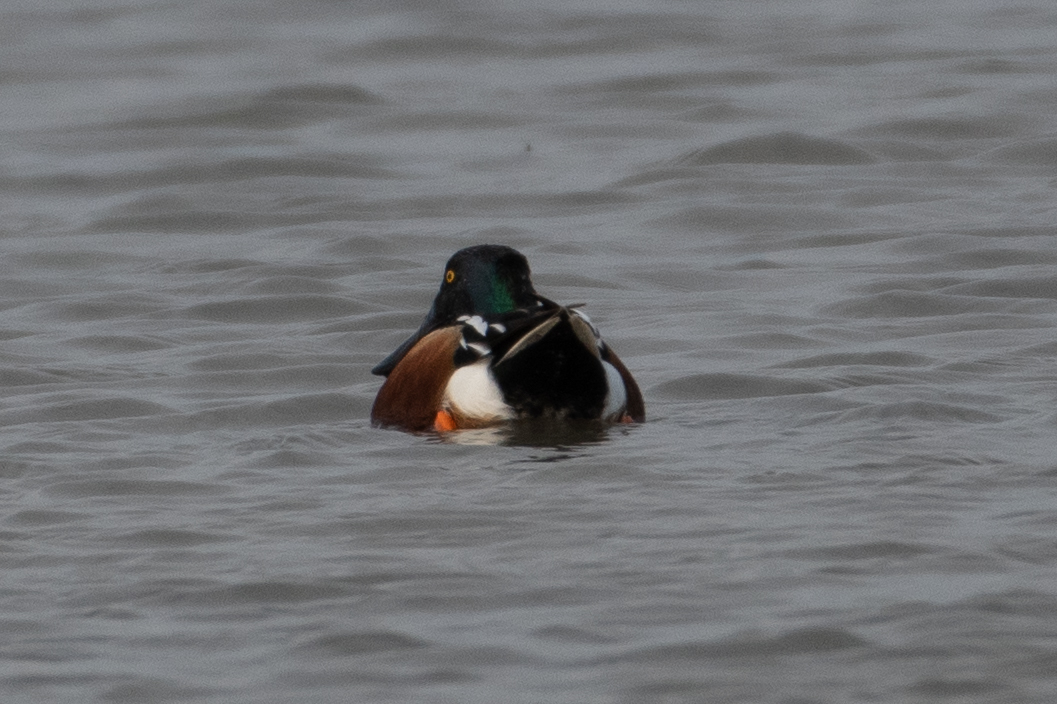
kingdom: Animalia
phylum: Chordata
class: Aves
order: Anseriformes
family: Anatidae
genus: Spatula
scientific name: Spatula clypeata
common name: Northern shoveler
